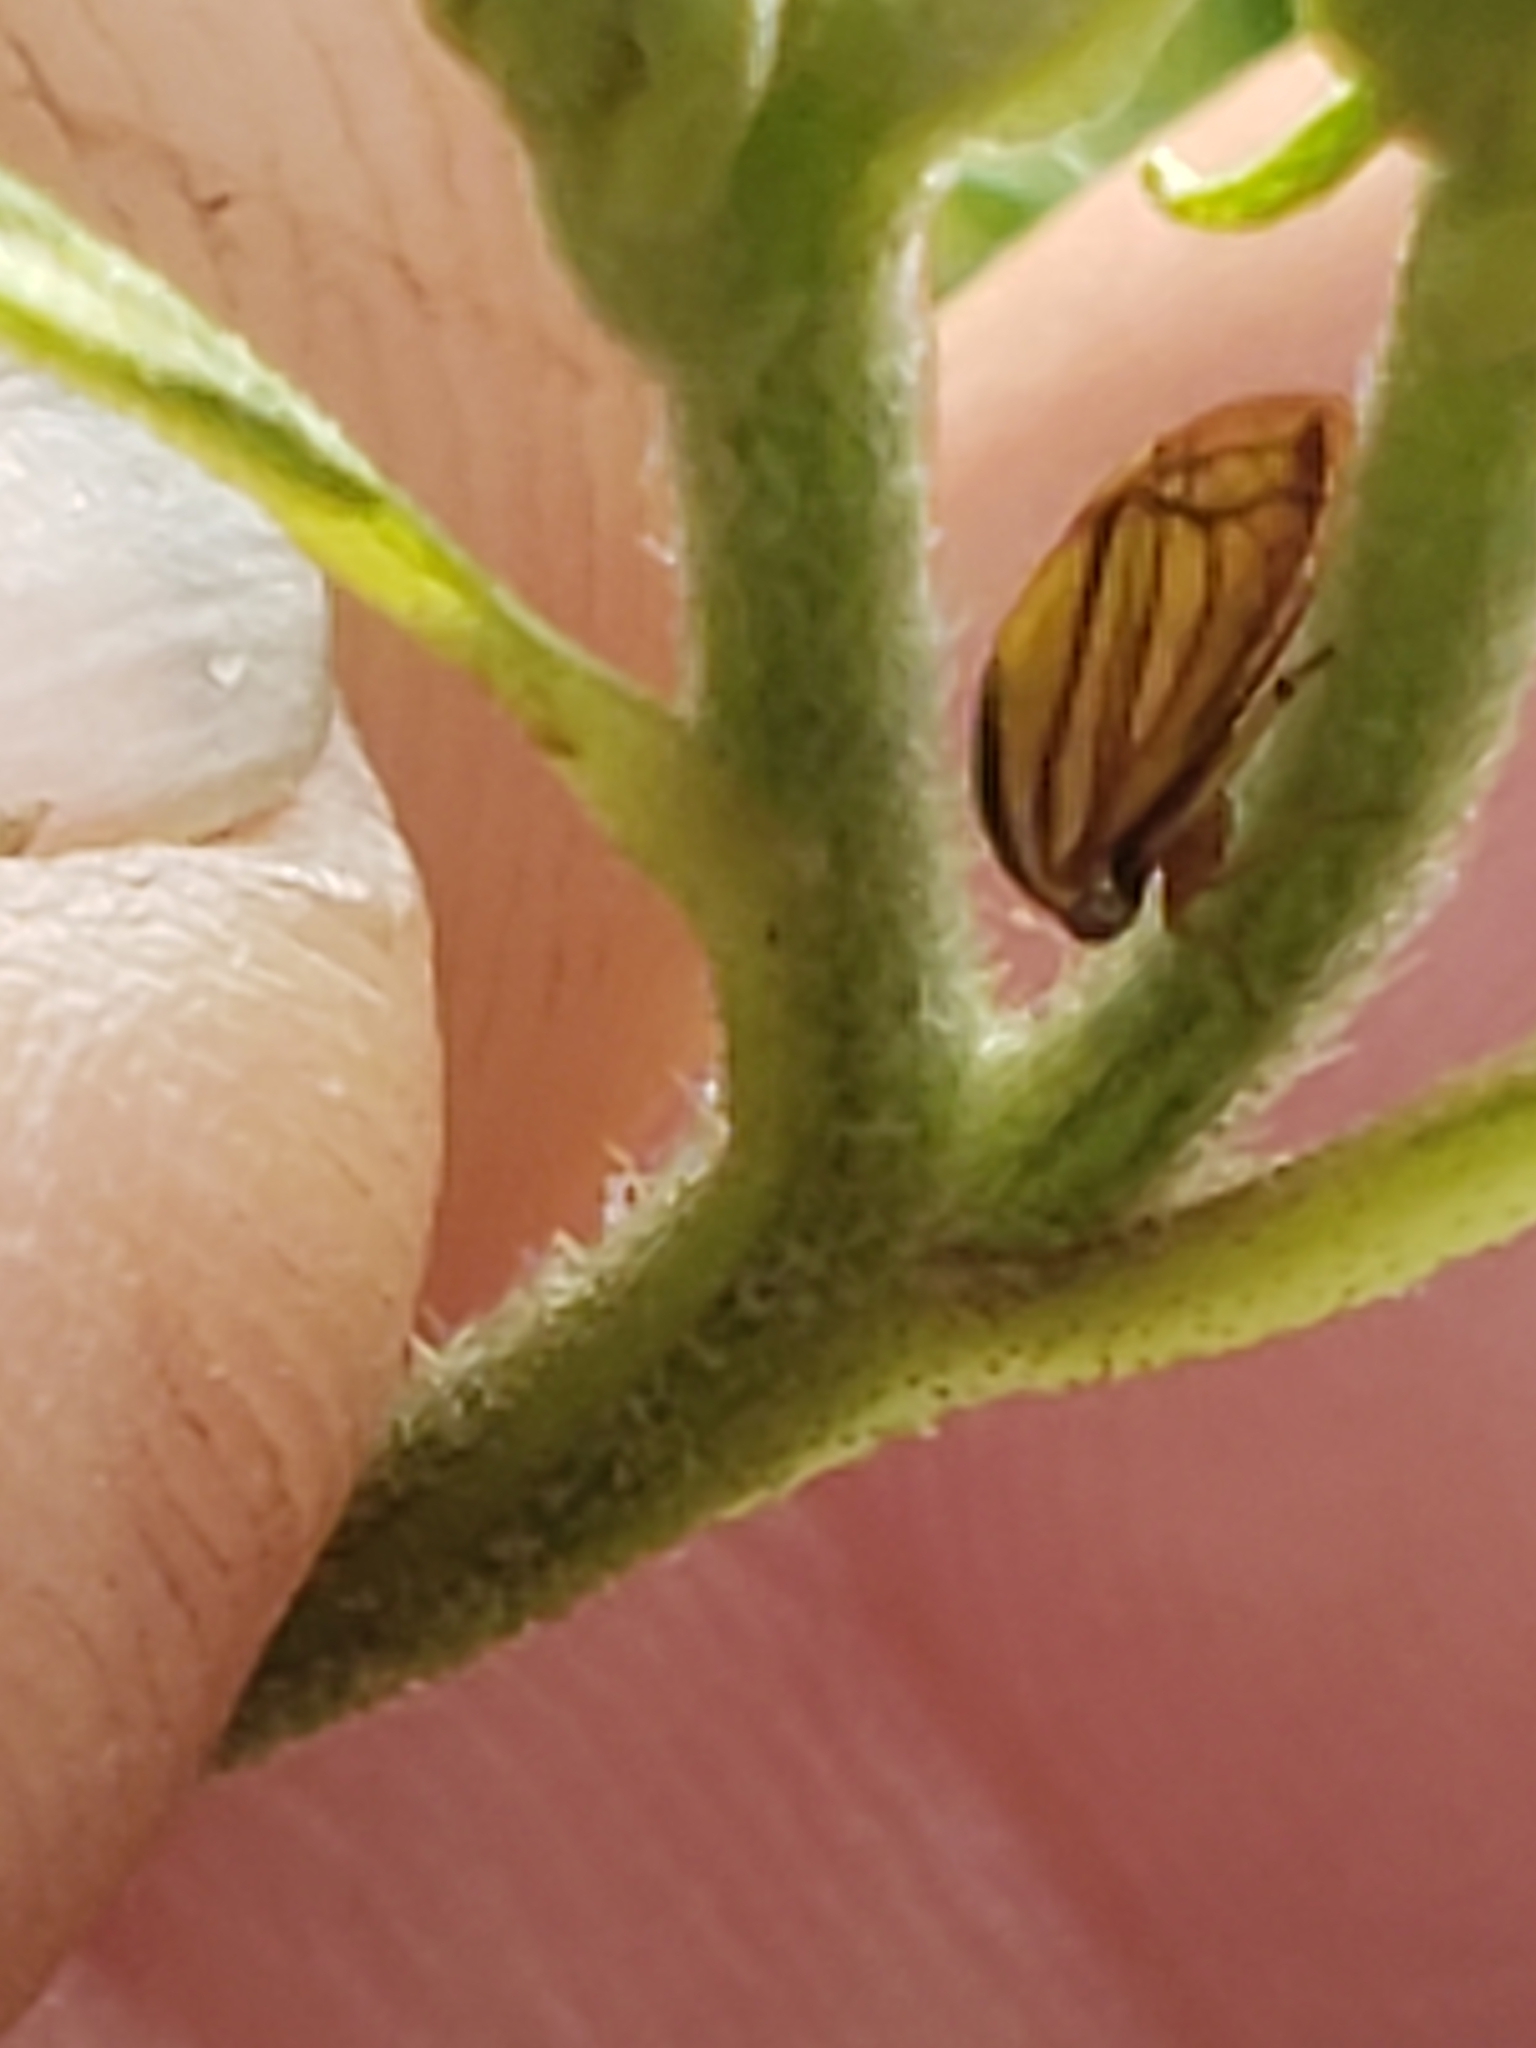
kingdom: Animalia
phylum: Arthropoda
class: Insecta
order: Hemiptera
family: Membracidae
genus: Acutalis
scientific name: Acutalis tartarea
